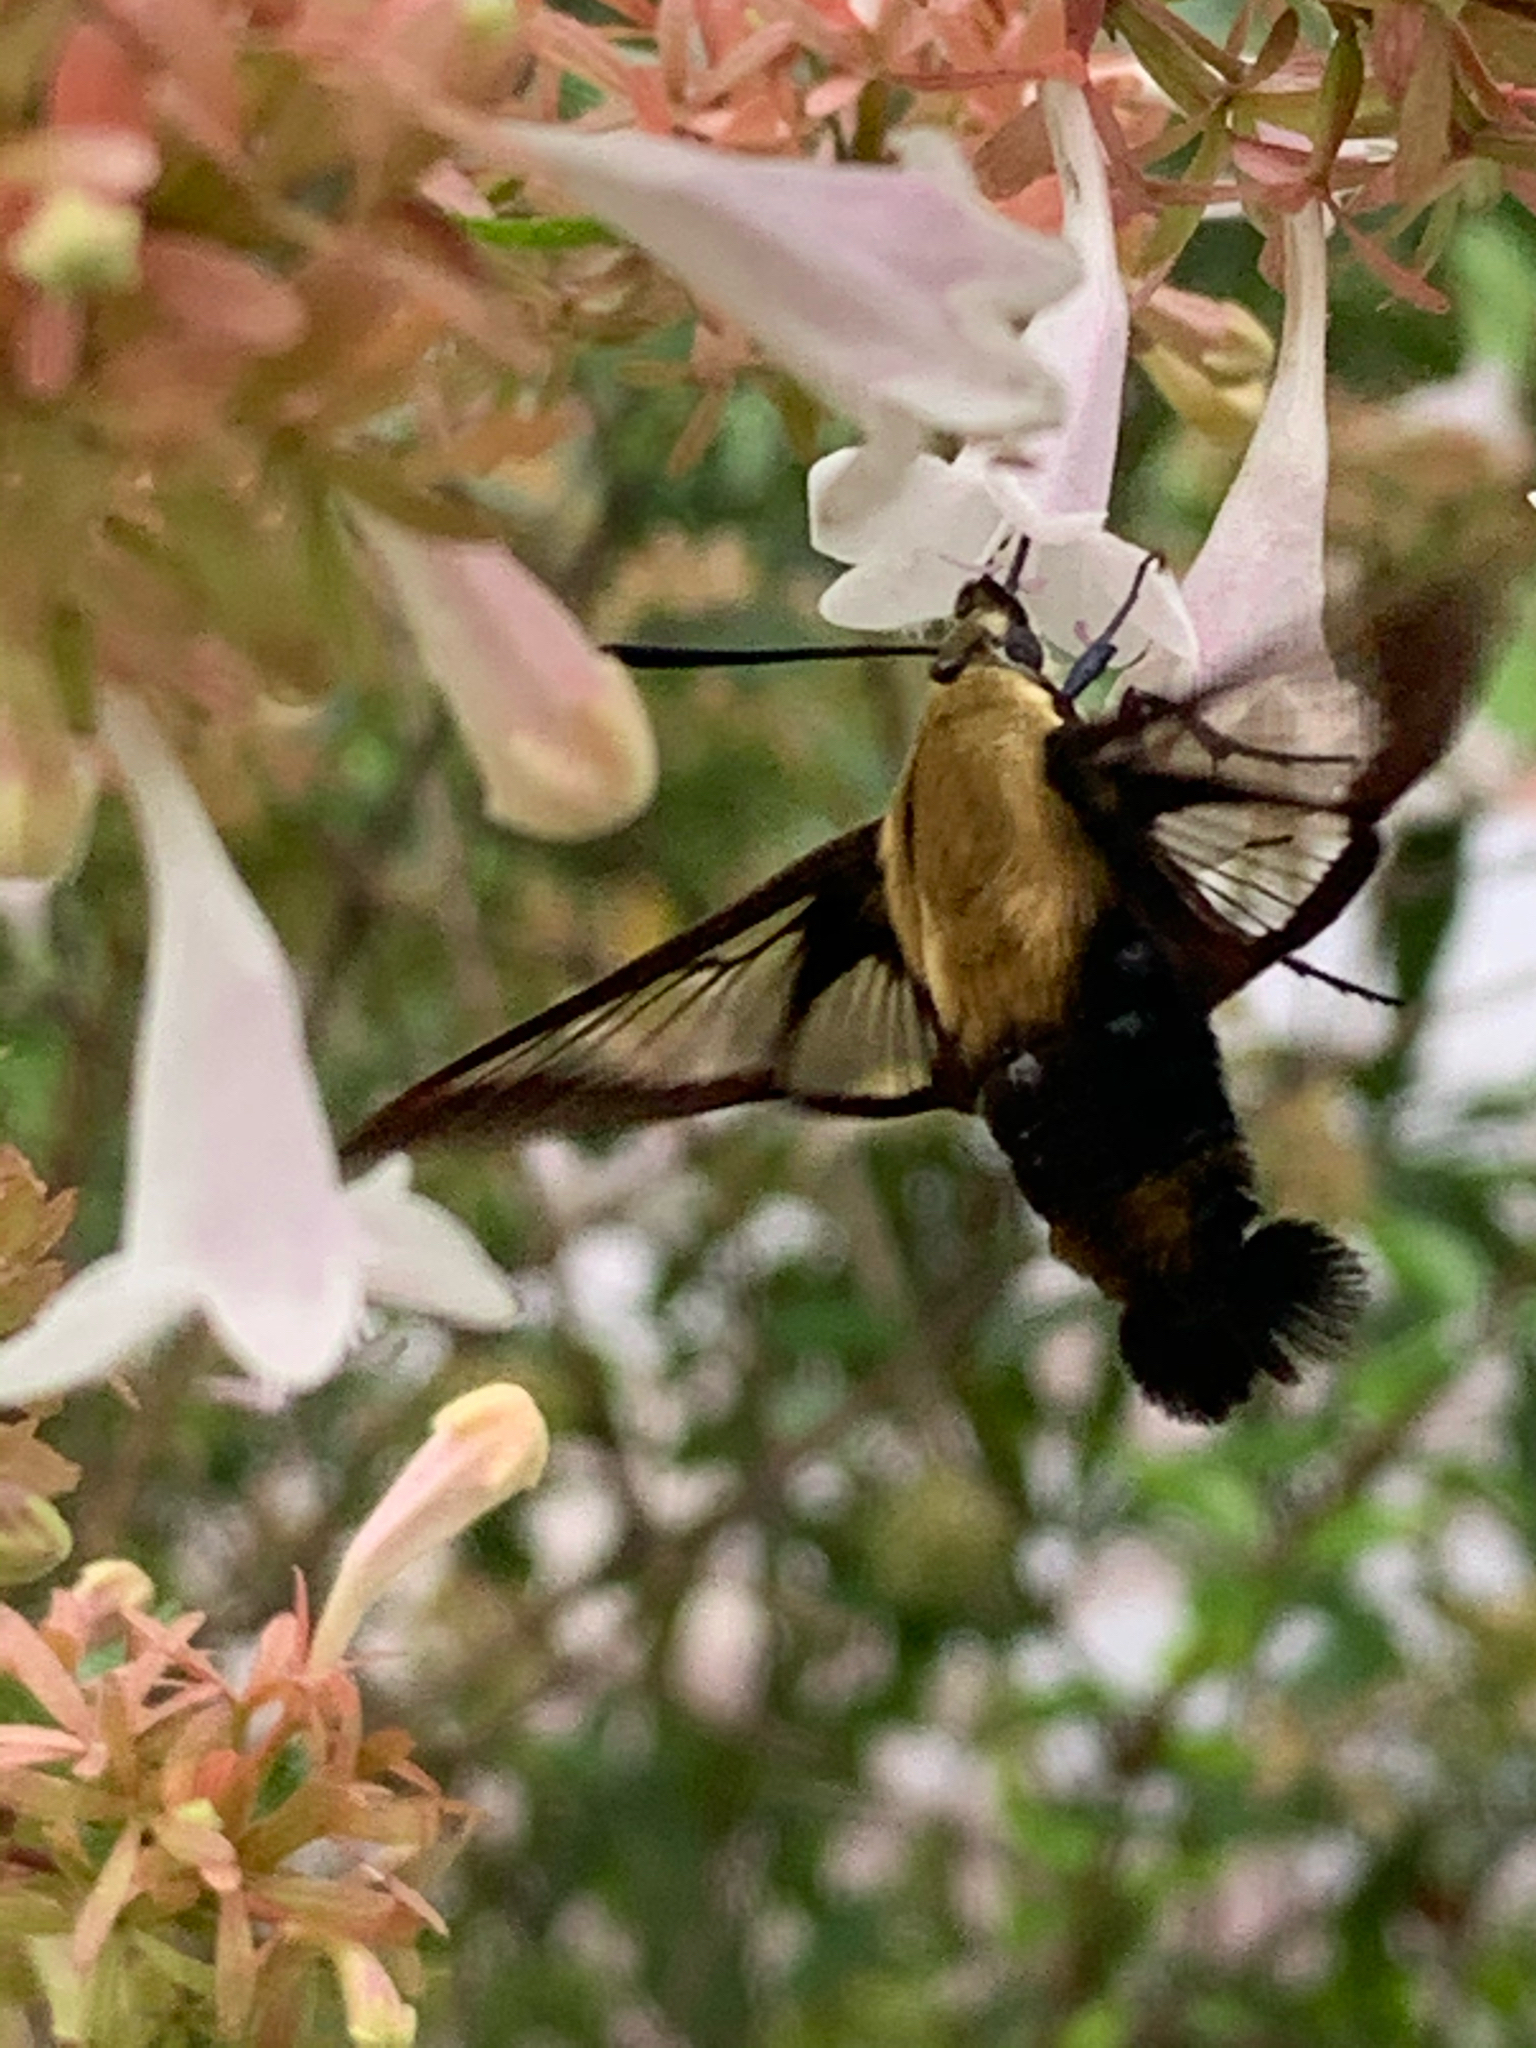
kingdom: Animalia
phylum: Arthropoda
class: Insecta
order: Lepidoptera
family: Sphingidae
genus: Hemaris
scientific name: Hemaris diffinis
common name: Bumblebee moth
